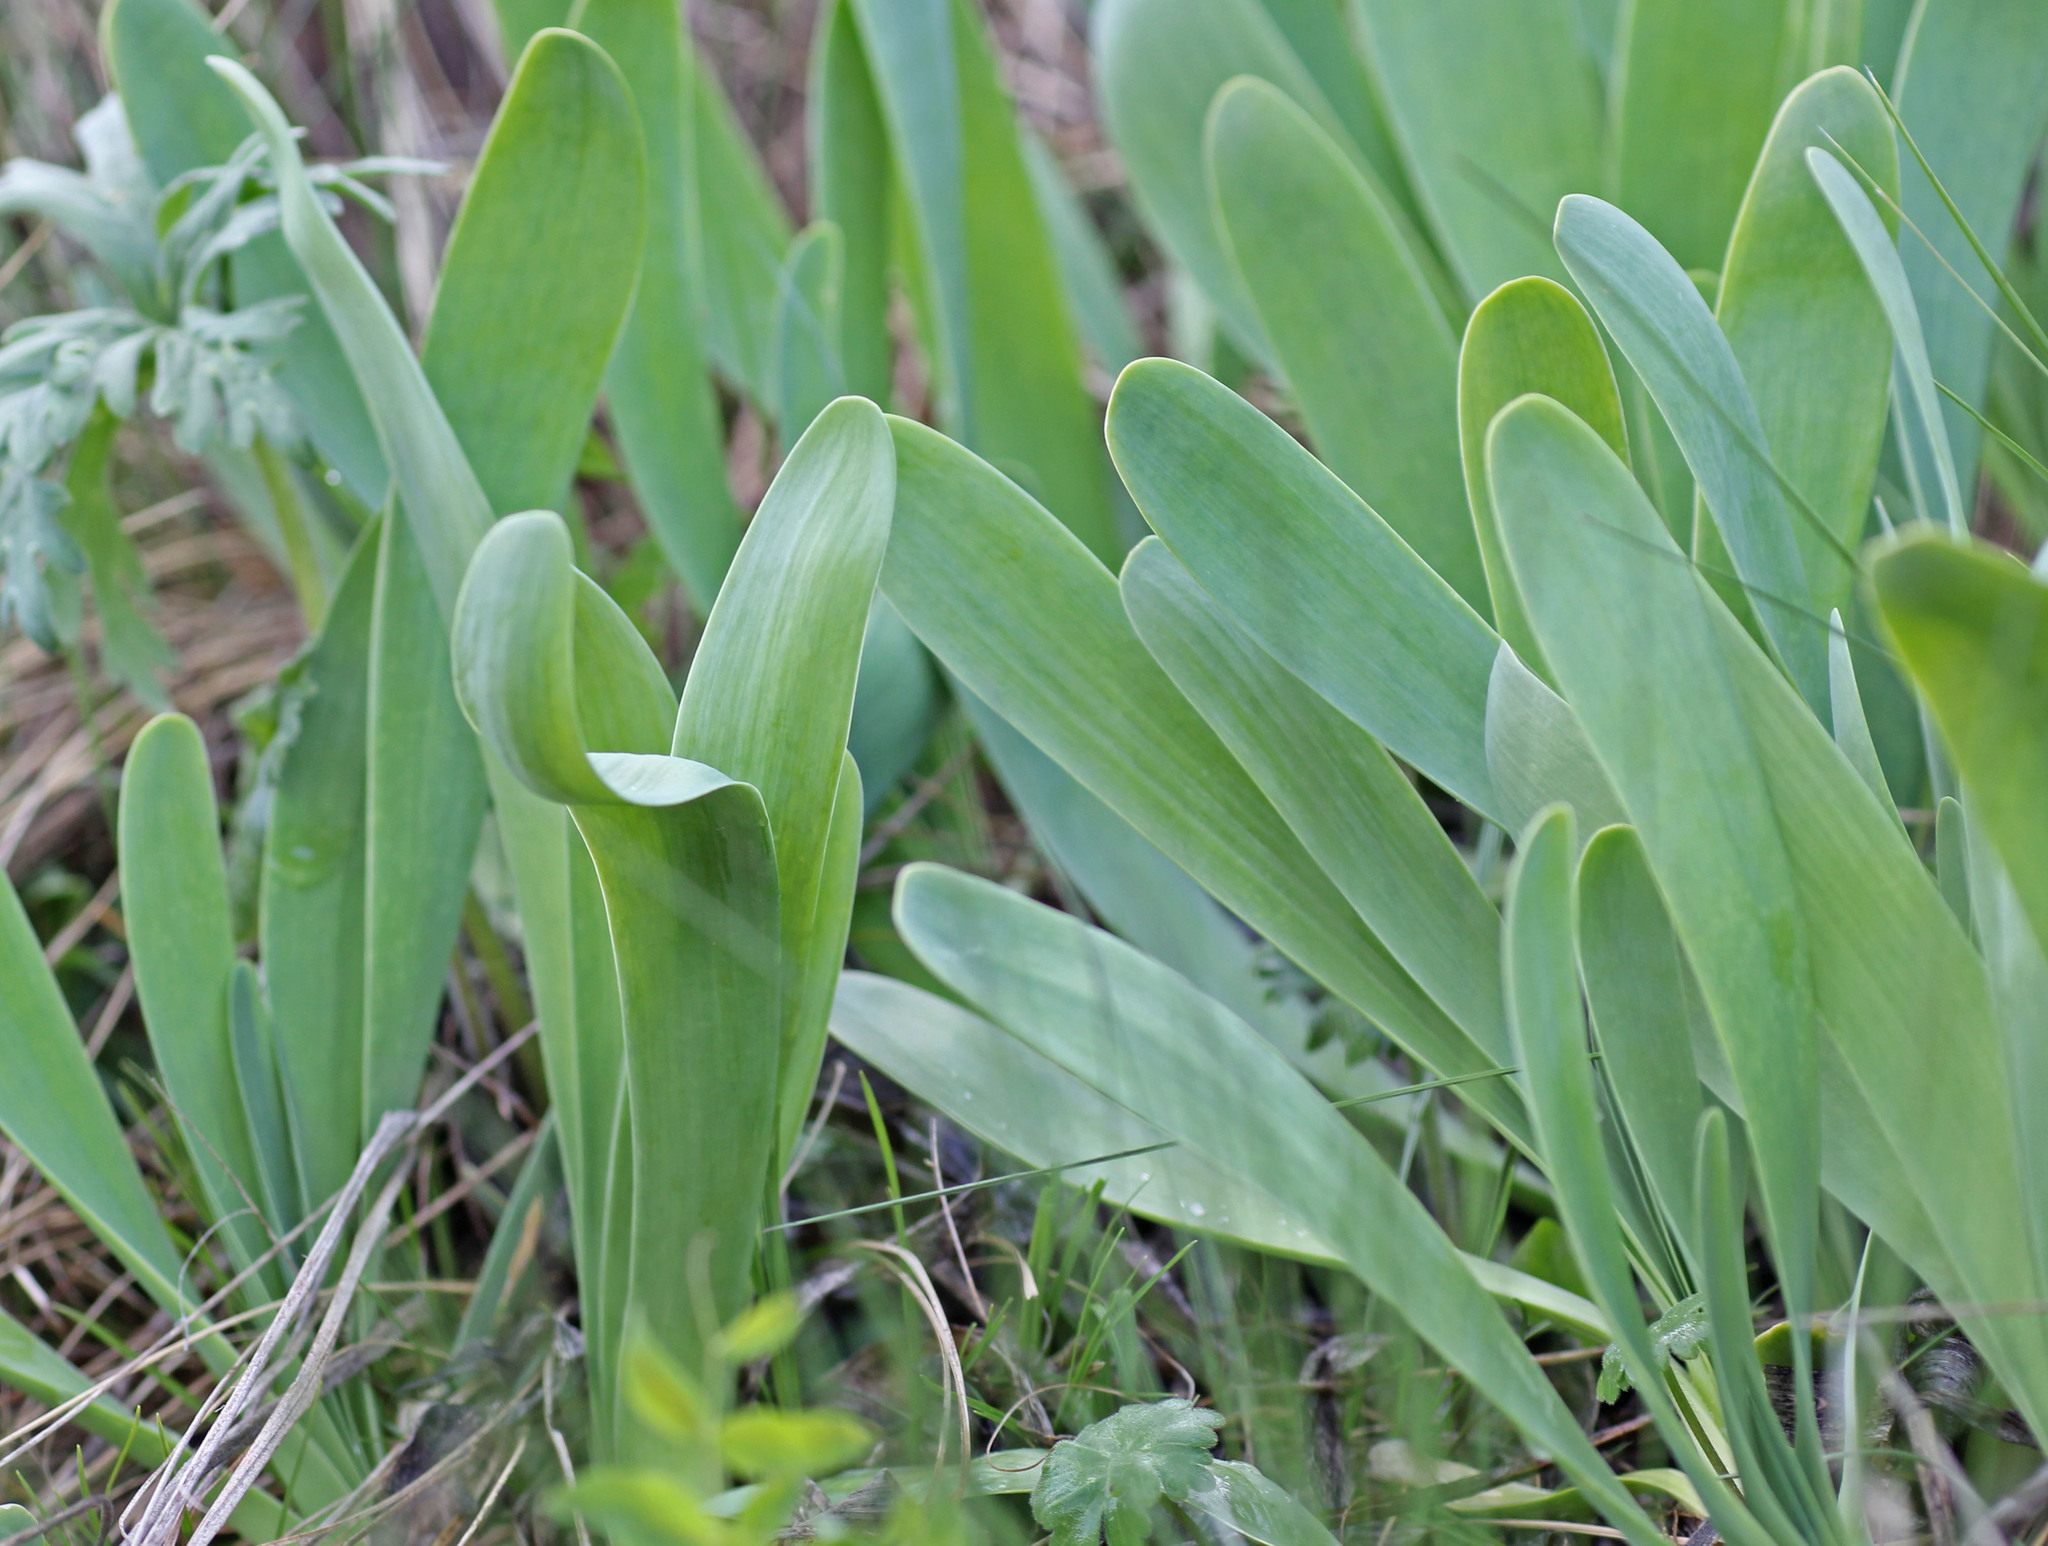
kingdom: Plantae
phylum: Tracheophyta
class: Liliopsida
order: Asparagales
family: Amaryllidaceae
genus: Allium
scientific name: Allium nutans
